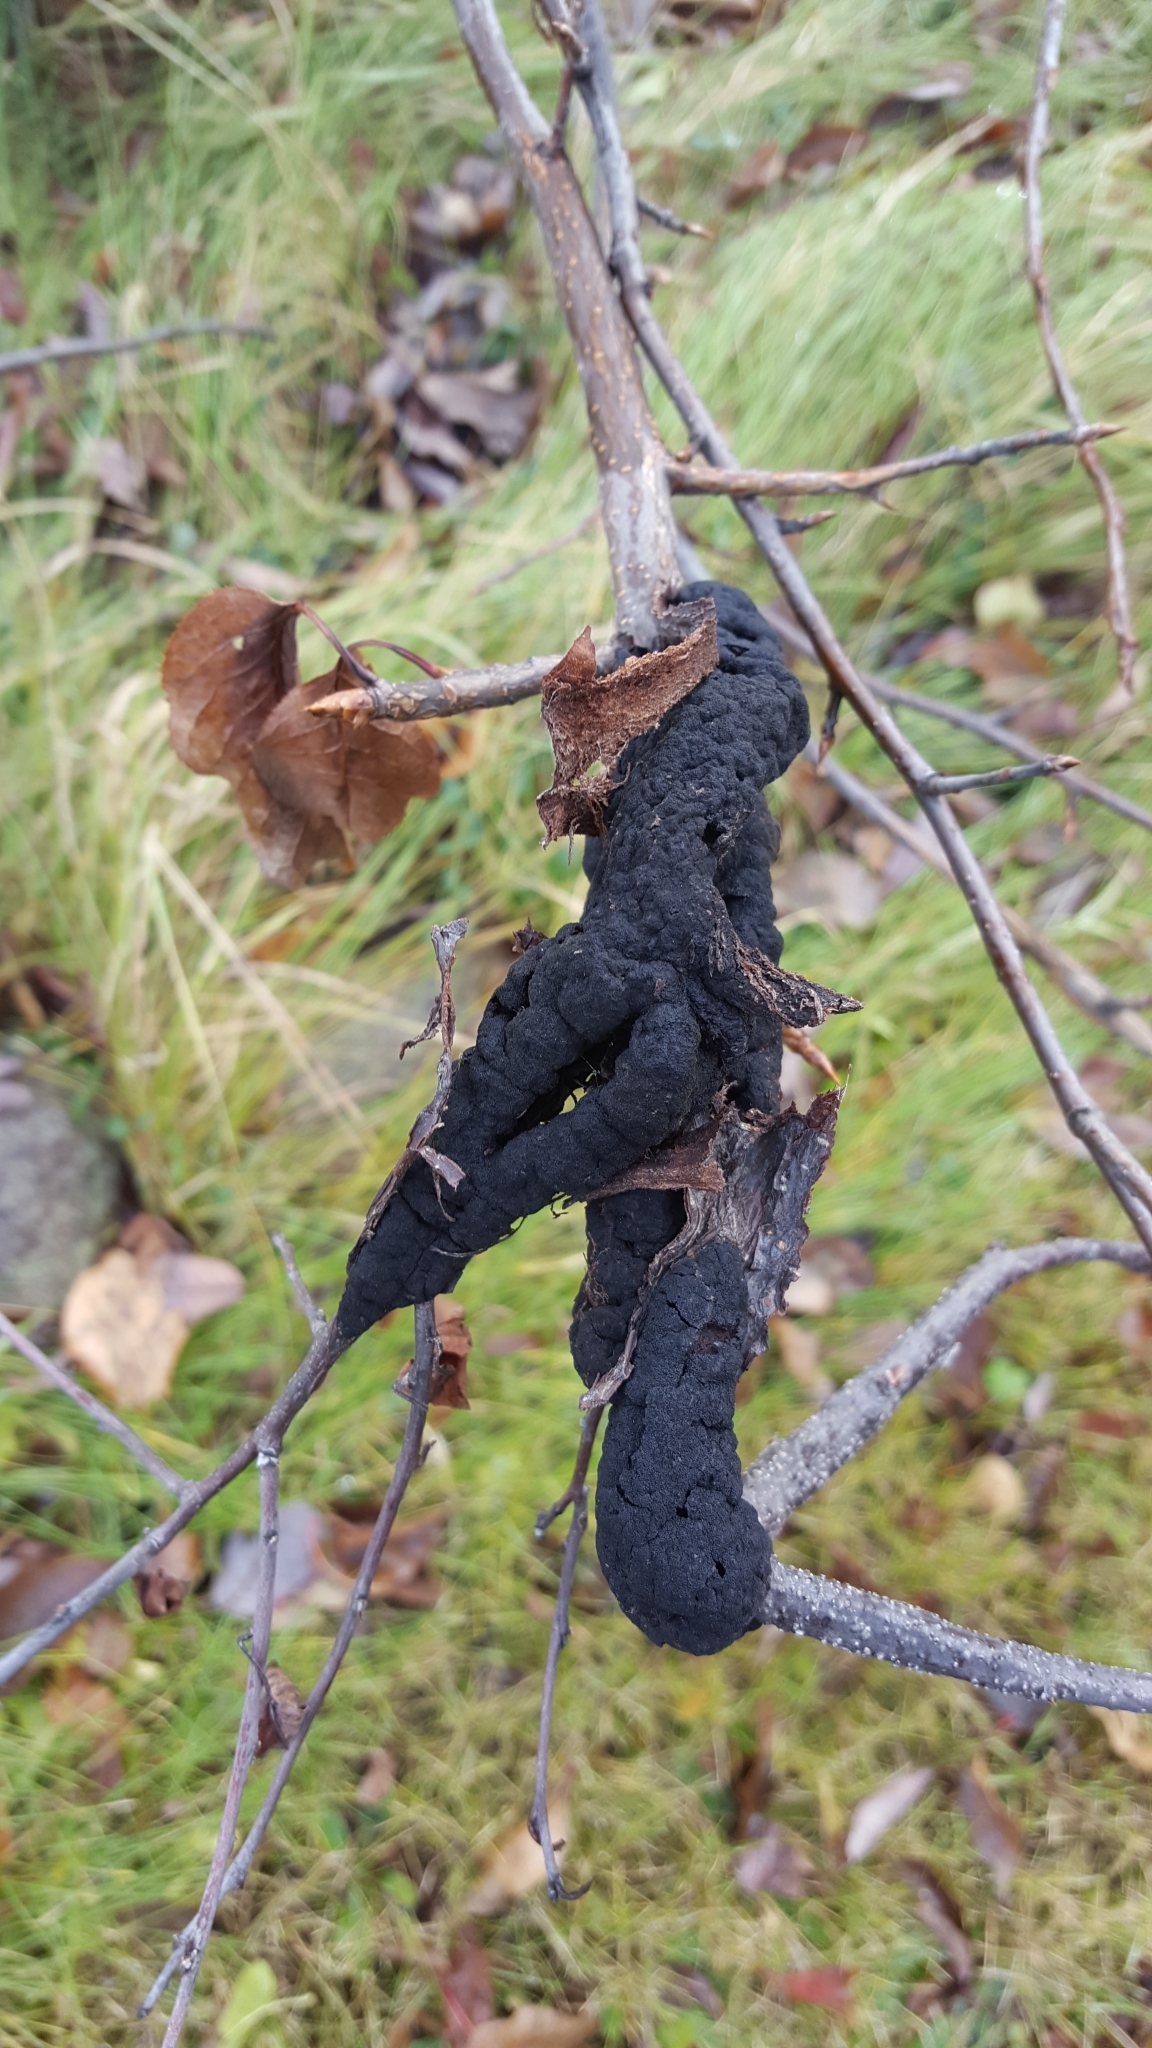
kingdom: Fungi
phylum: Ascomycota
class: Dothideomycetes
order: Venturiales
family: Venturiaceae
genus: Apiosporina
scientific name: Apiosporina morbosa
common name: Black knot
